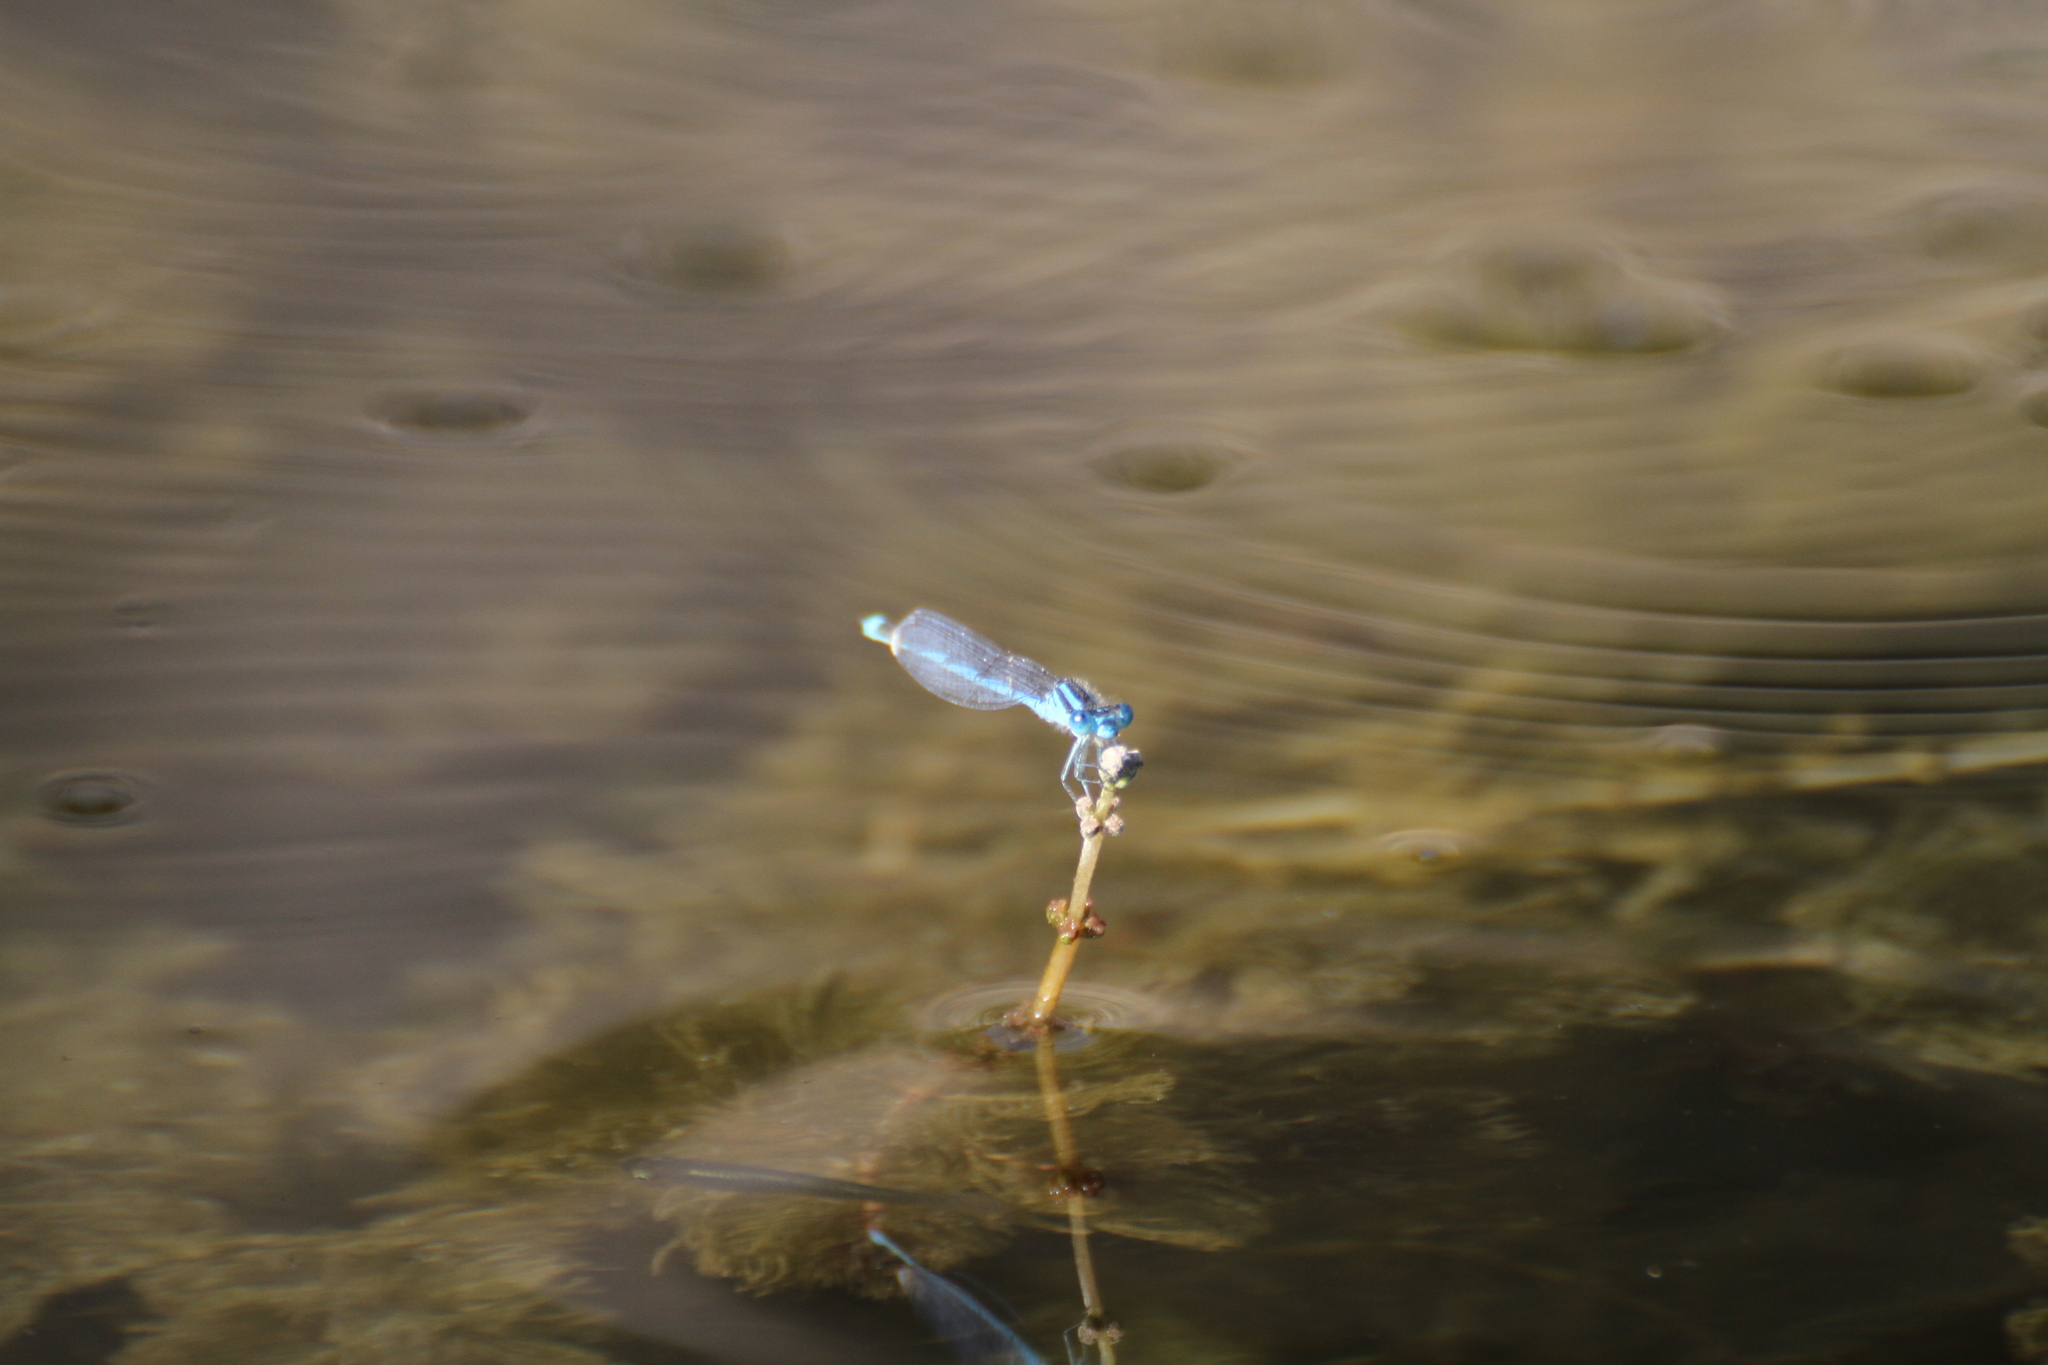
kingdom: Animalia
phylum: Arthropoda
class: Insecta
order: Odonata
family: Coenagrionidae
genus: Erythromma
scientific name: Erythromma lindenii
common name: Blue-eye
